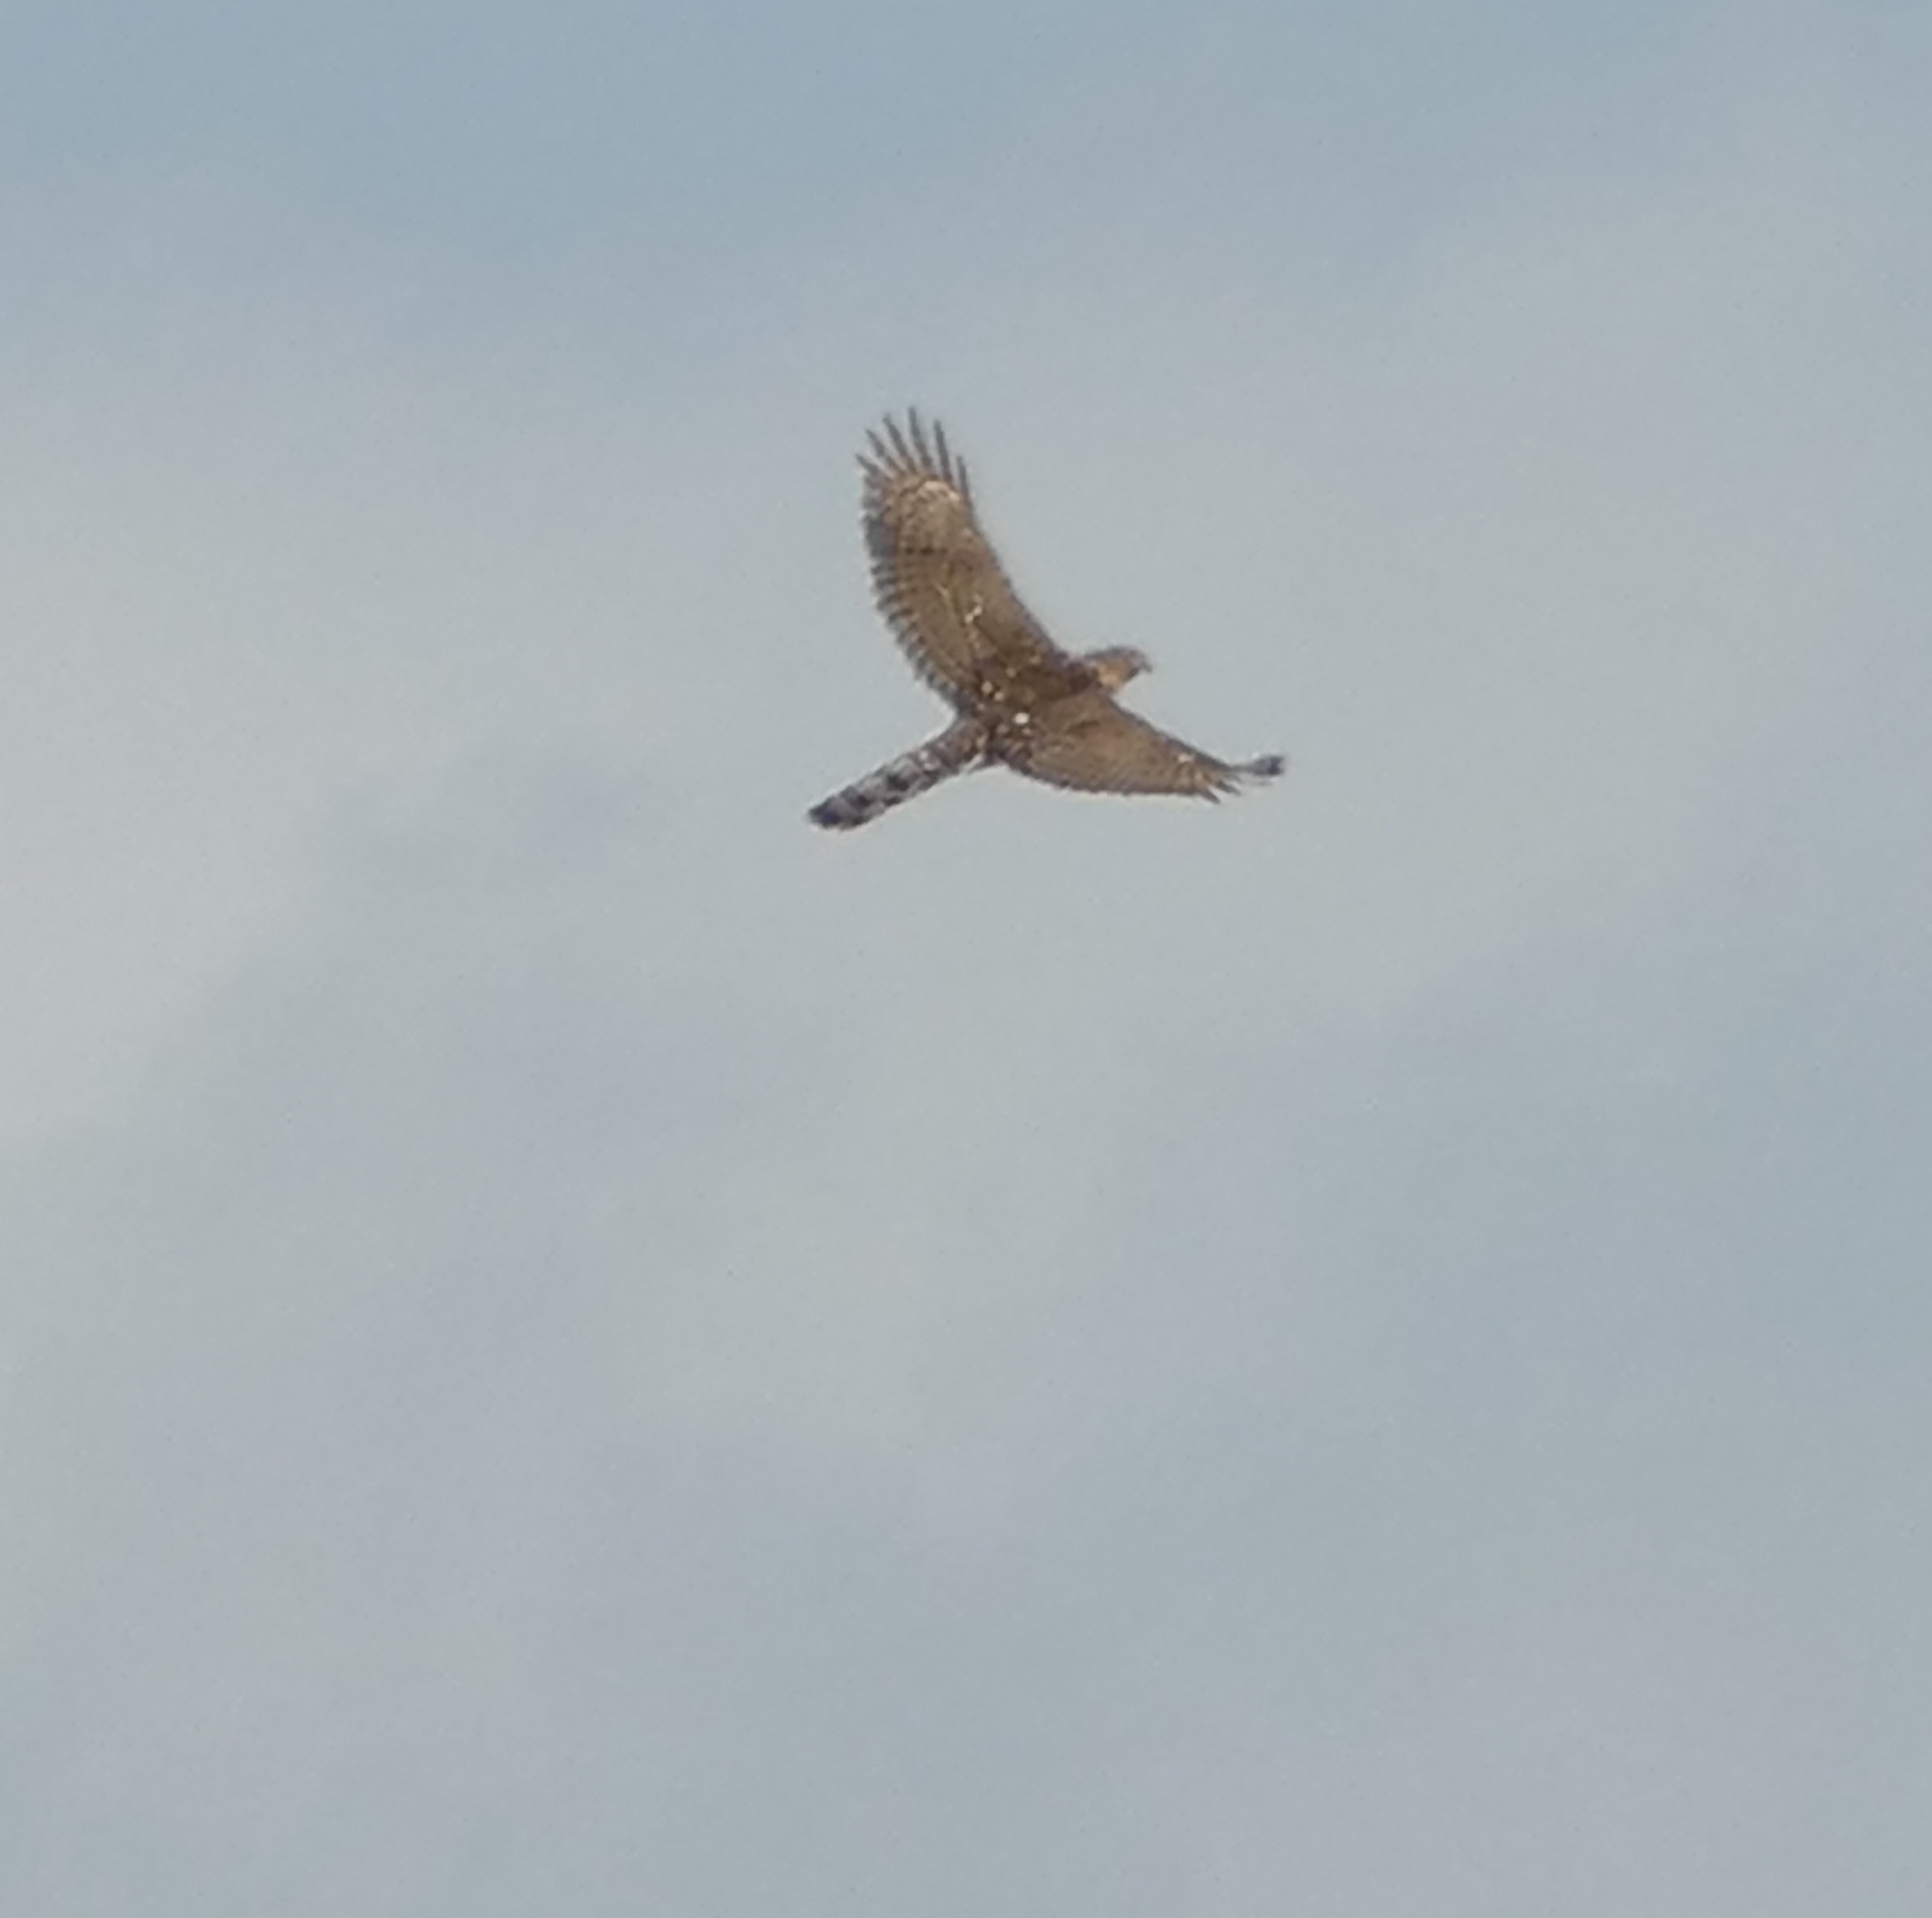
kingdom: Animalia
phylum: Chordata
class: Aves
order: Accipitriformes
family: Accipitridae
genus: Accipiter
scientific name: Accipiter cooperii
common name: Cooper's hawk
